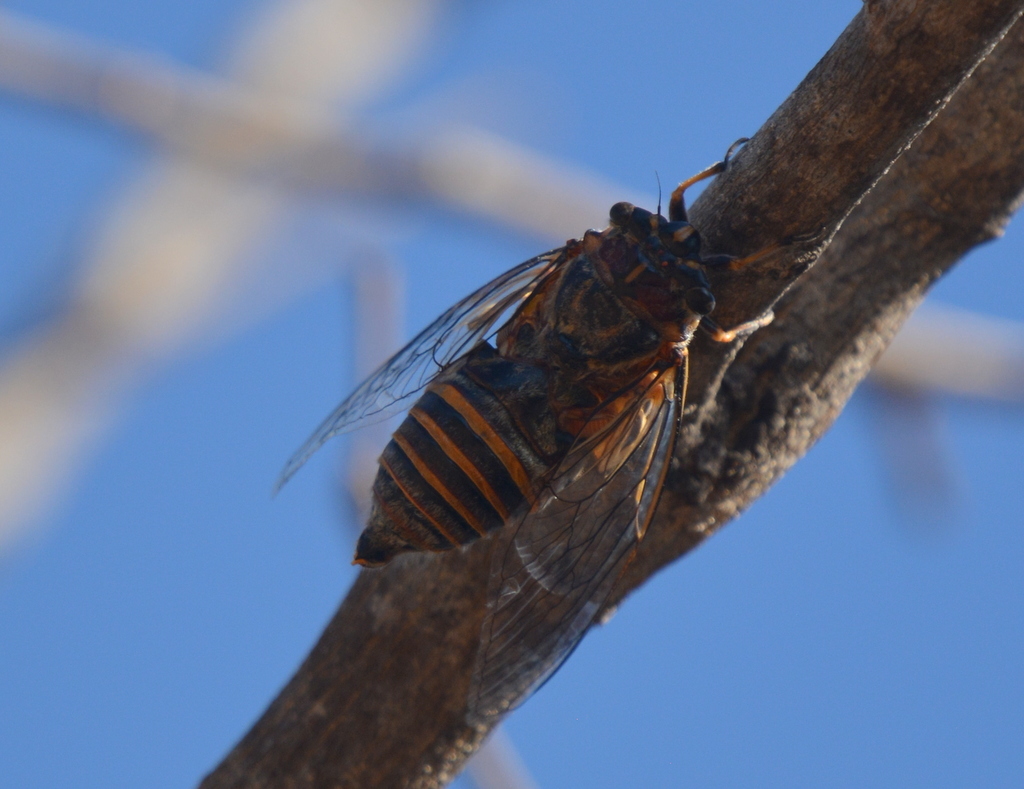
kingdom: Animalia
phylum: Arthropoda
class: Insecta
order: Hemiptera
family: Cicadidae
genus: Monomatapa
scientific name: Monomatapa matoposa
